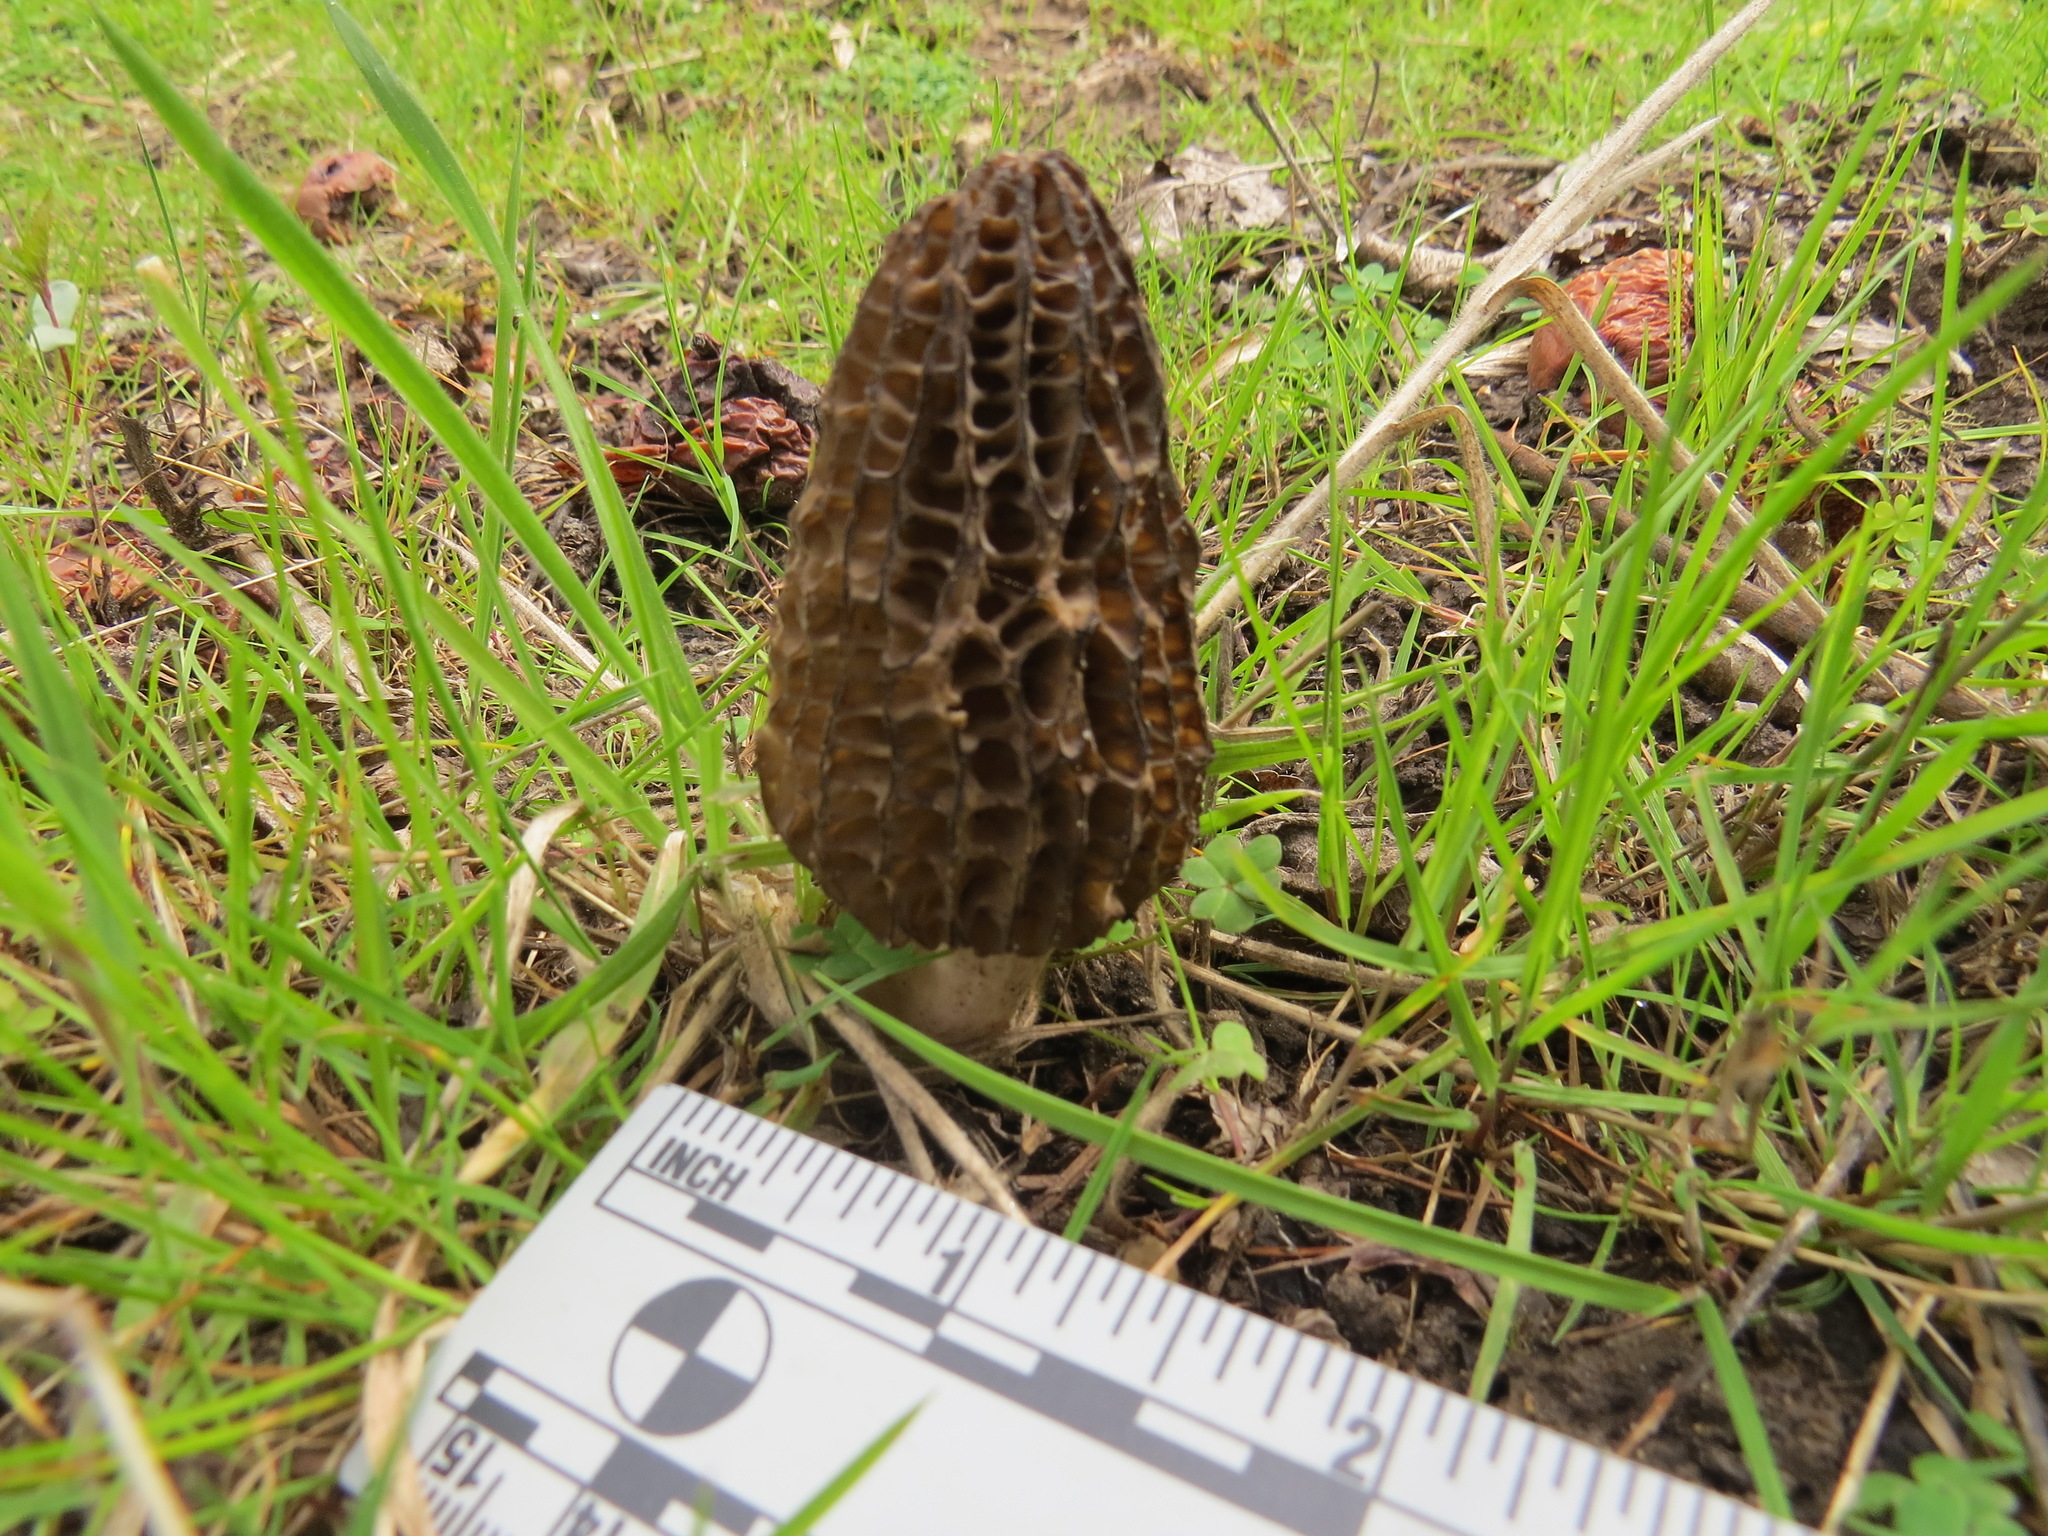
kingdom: Fungi
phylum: Ascomycota
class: Pezizomycetes
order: Pezizales
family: Morchellaceae
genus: Morchella
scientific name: Morchella importuna
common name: Landscaping black morel
